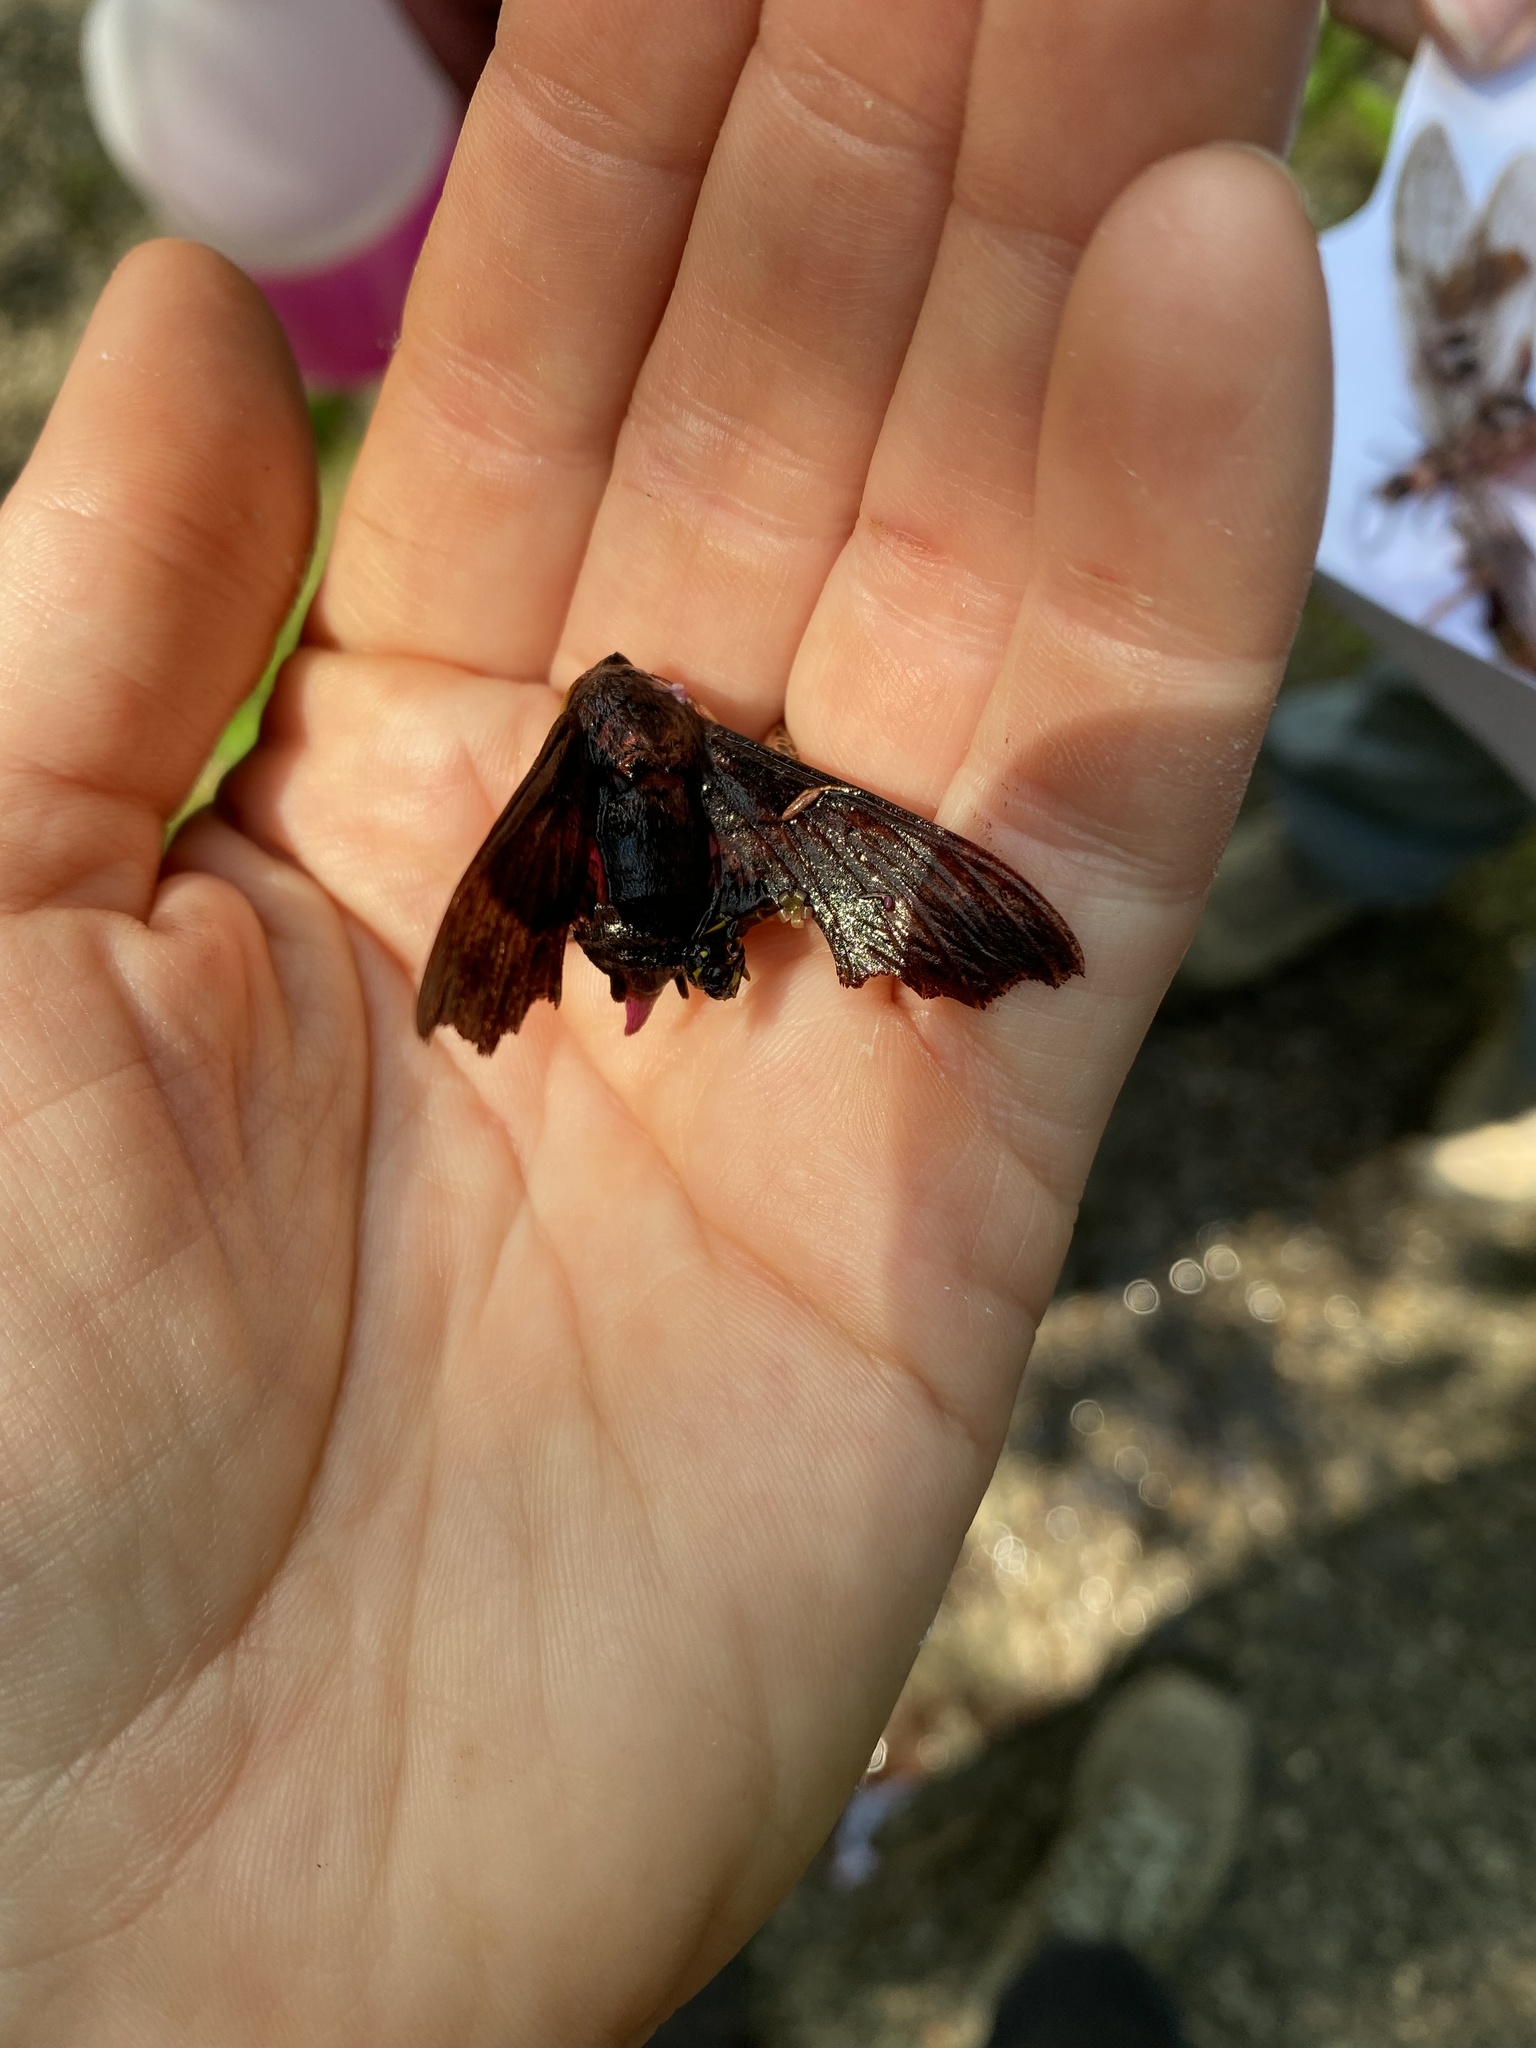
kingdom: Animalia
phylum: Arthropoda
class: Insecta
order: Lepidoptera
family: Sphingidae
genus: Amphion
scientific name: Amphion floridensis
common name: Nessus sphinx
